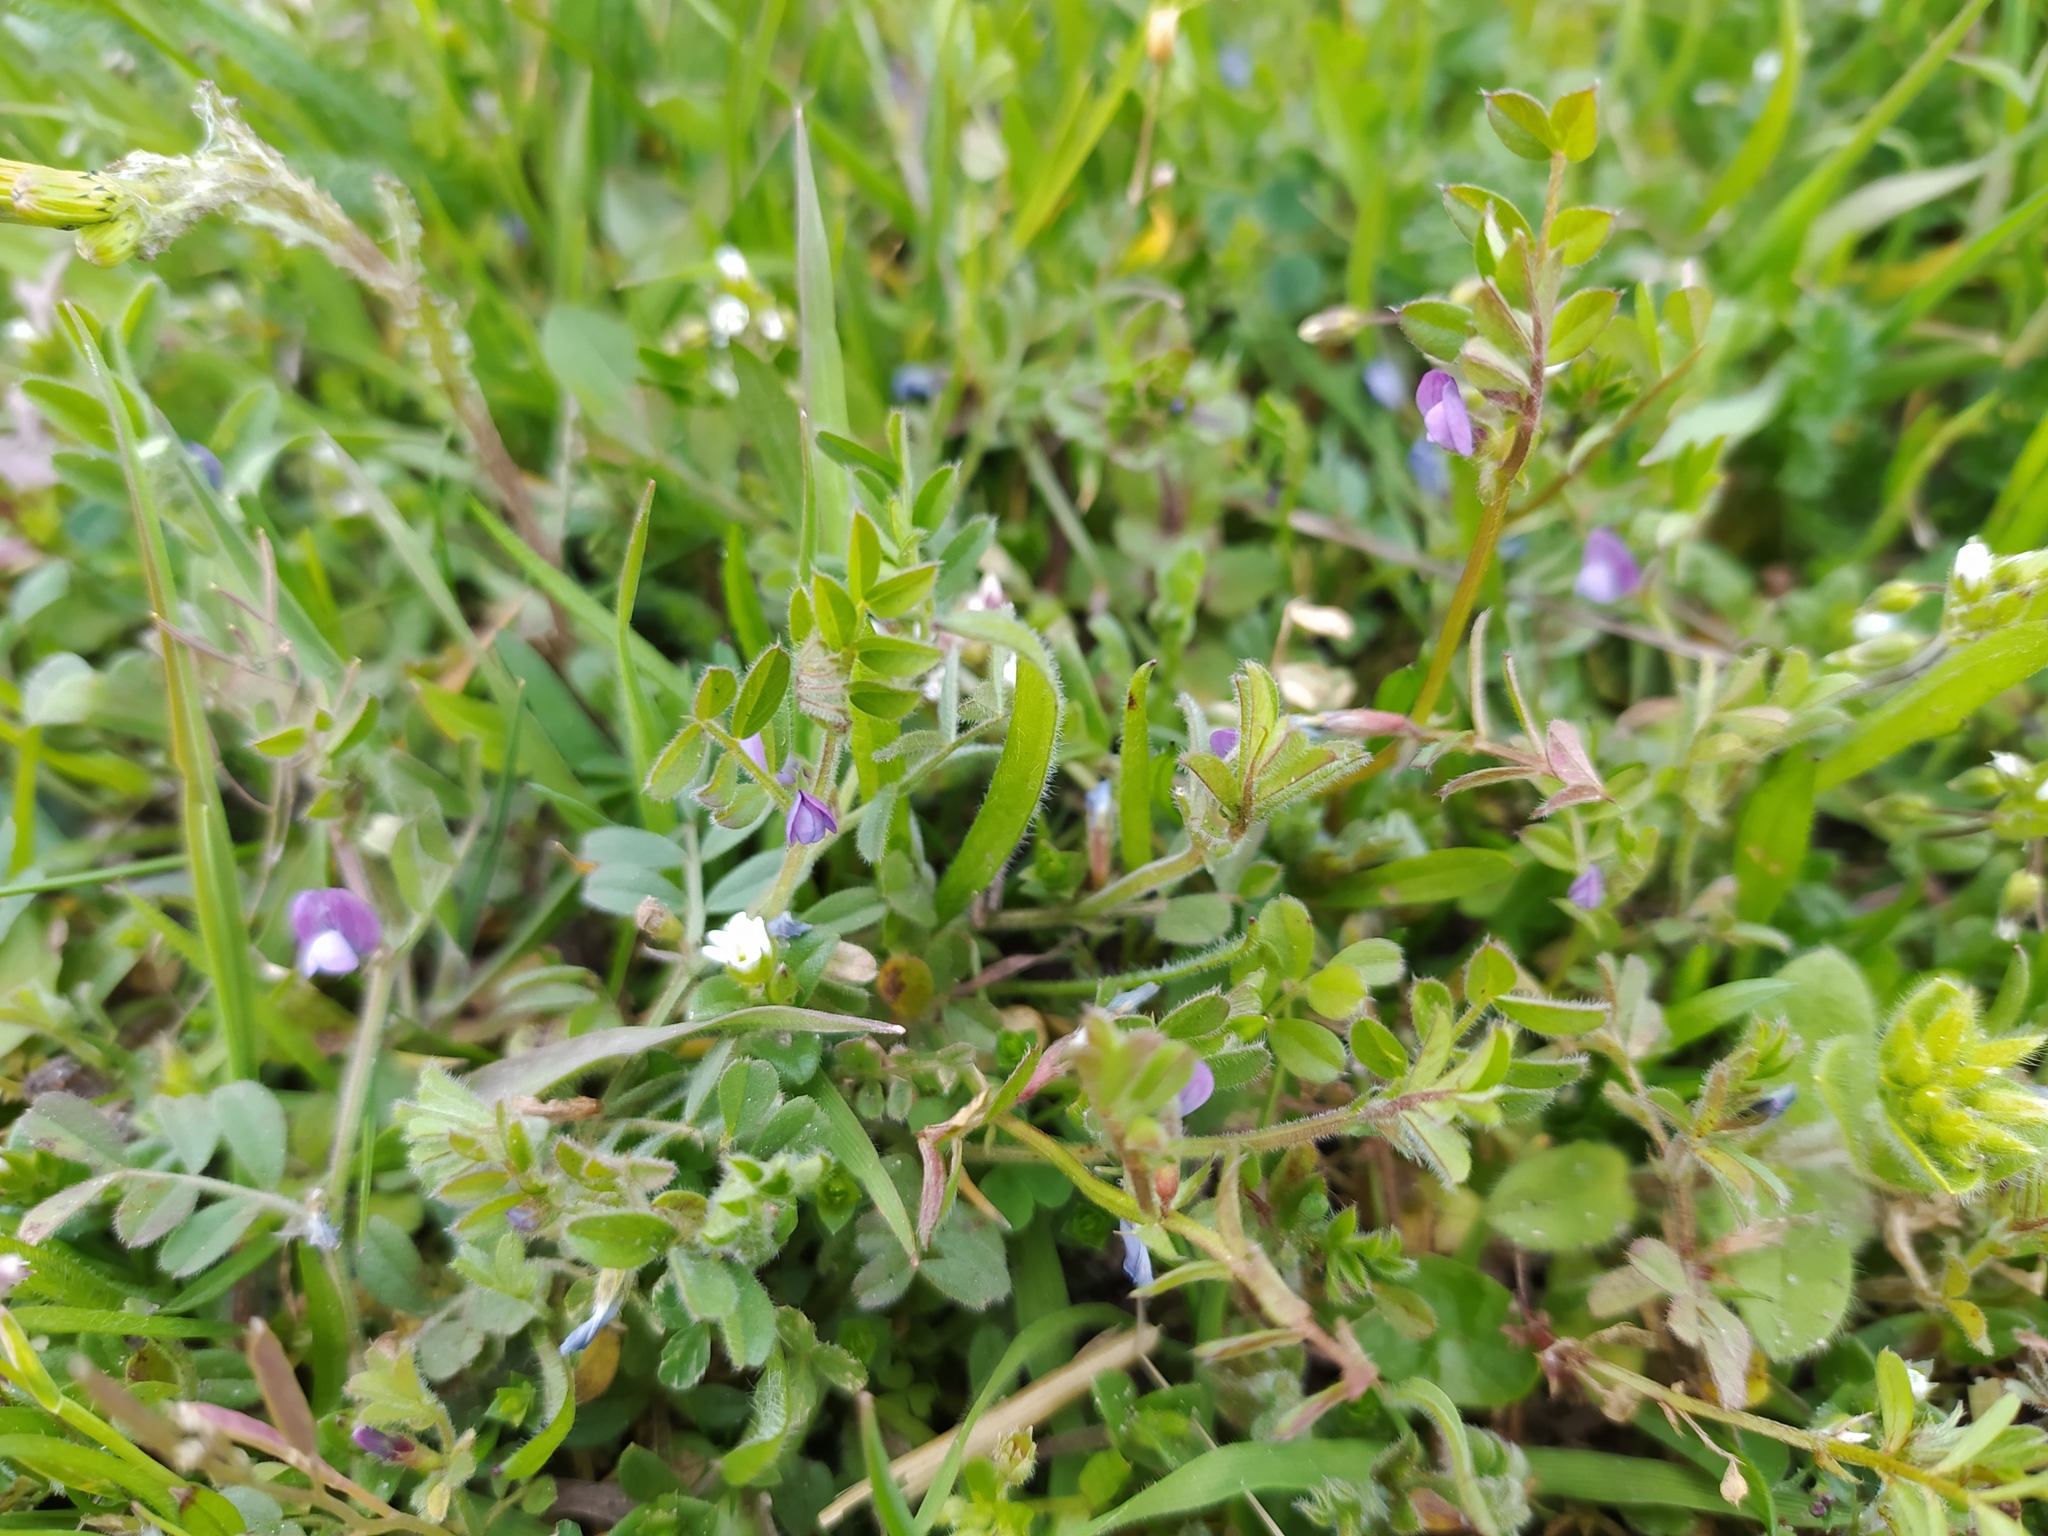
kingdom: Plantae
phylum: Tracheophyta
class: Magnoliopsida
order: Fabales
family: Fabaceae
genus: Vicia
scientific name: Vicia lathyroides
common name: Spring vetch
